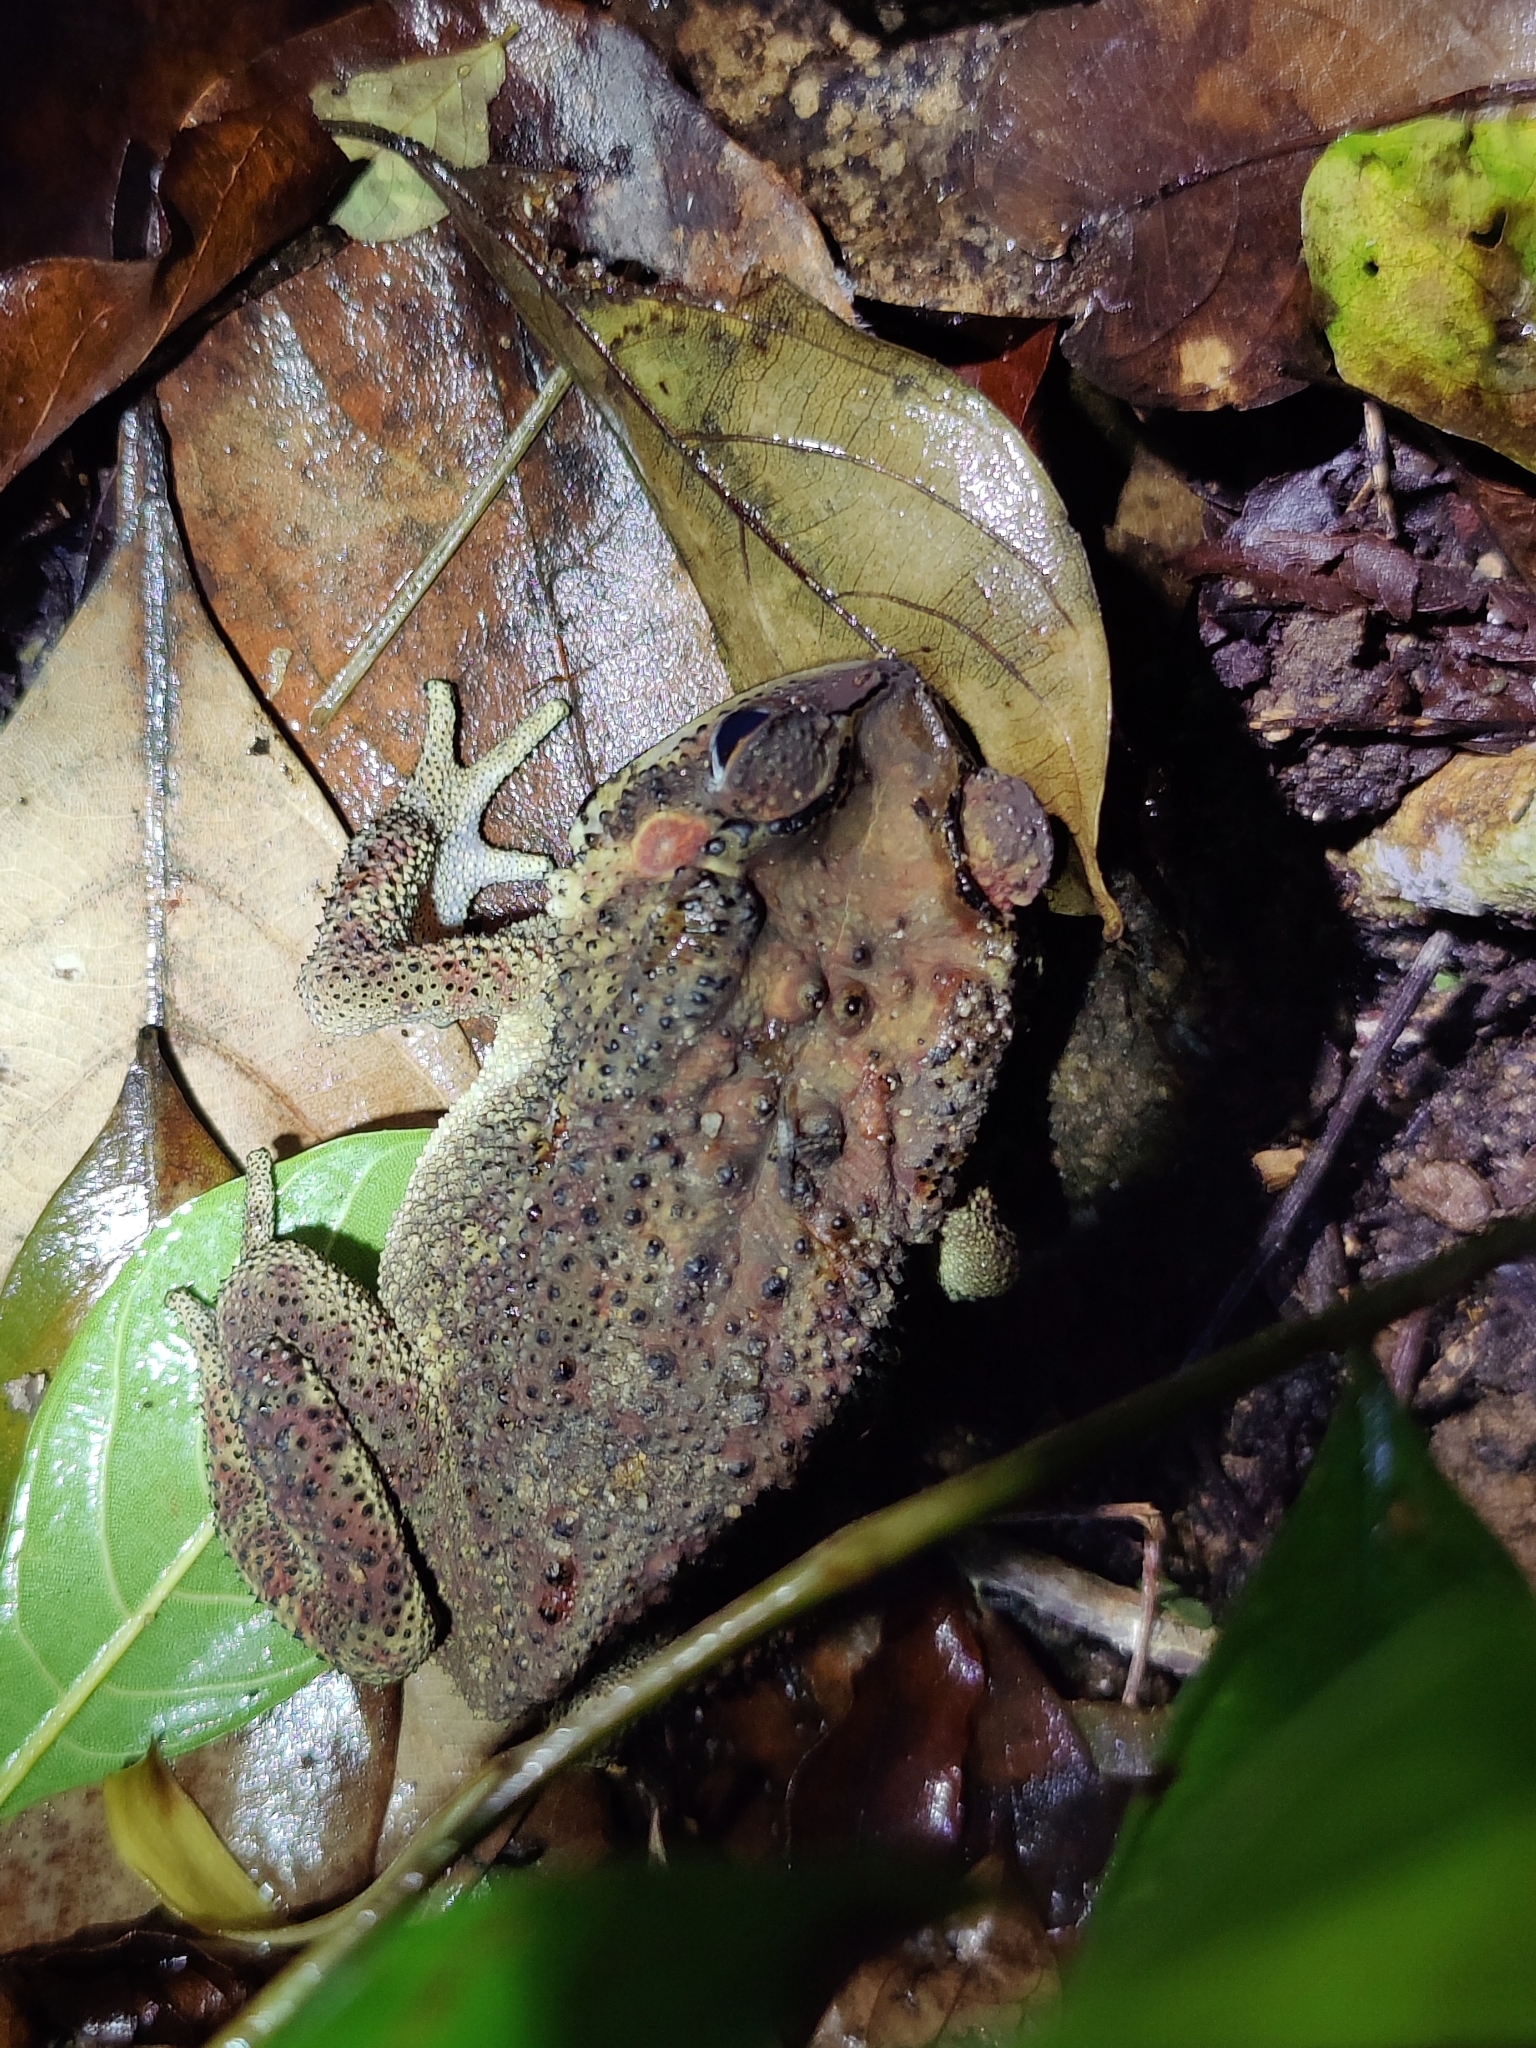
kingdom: Animalia
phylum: Chordata
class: Amphibia
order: Anura
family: Bufonidae
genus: Duttaphrynus
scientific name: Duttaphrynus melanostictus
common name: Common sunda toad
